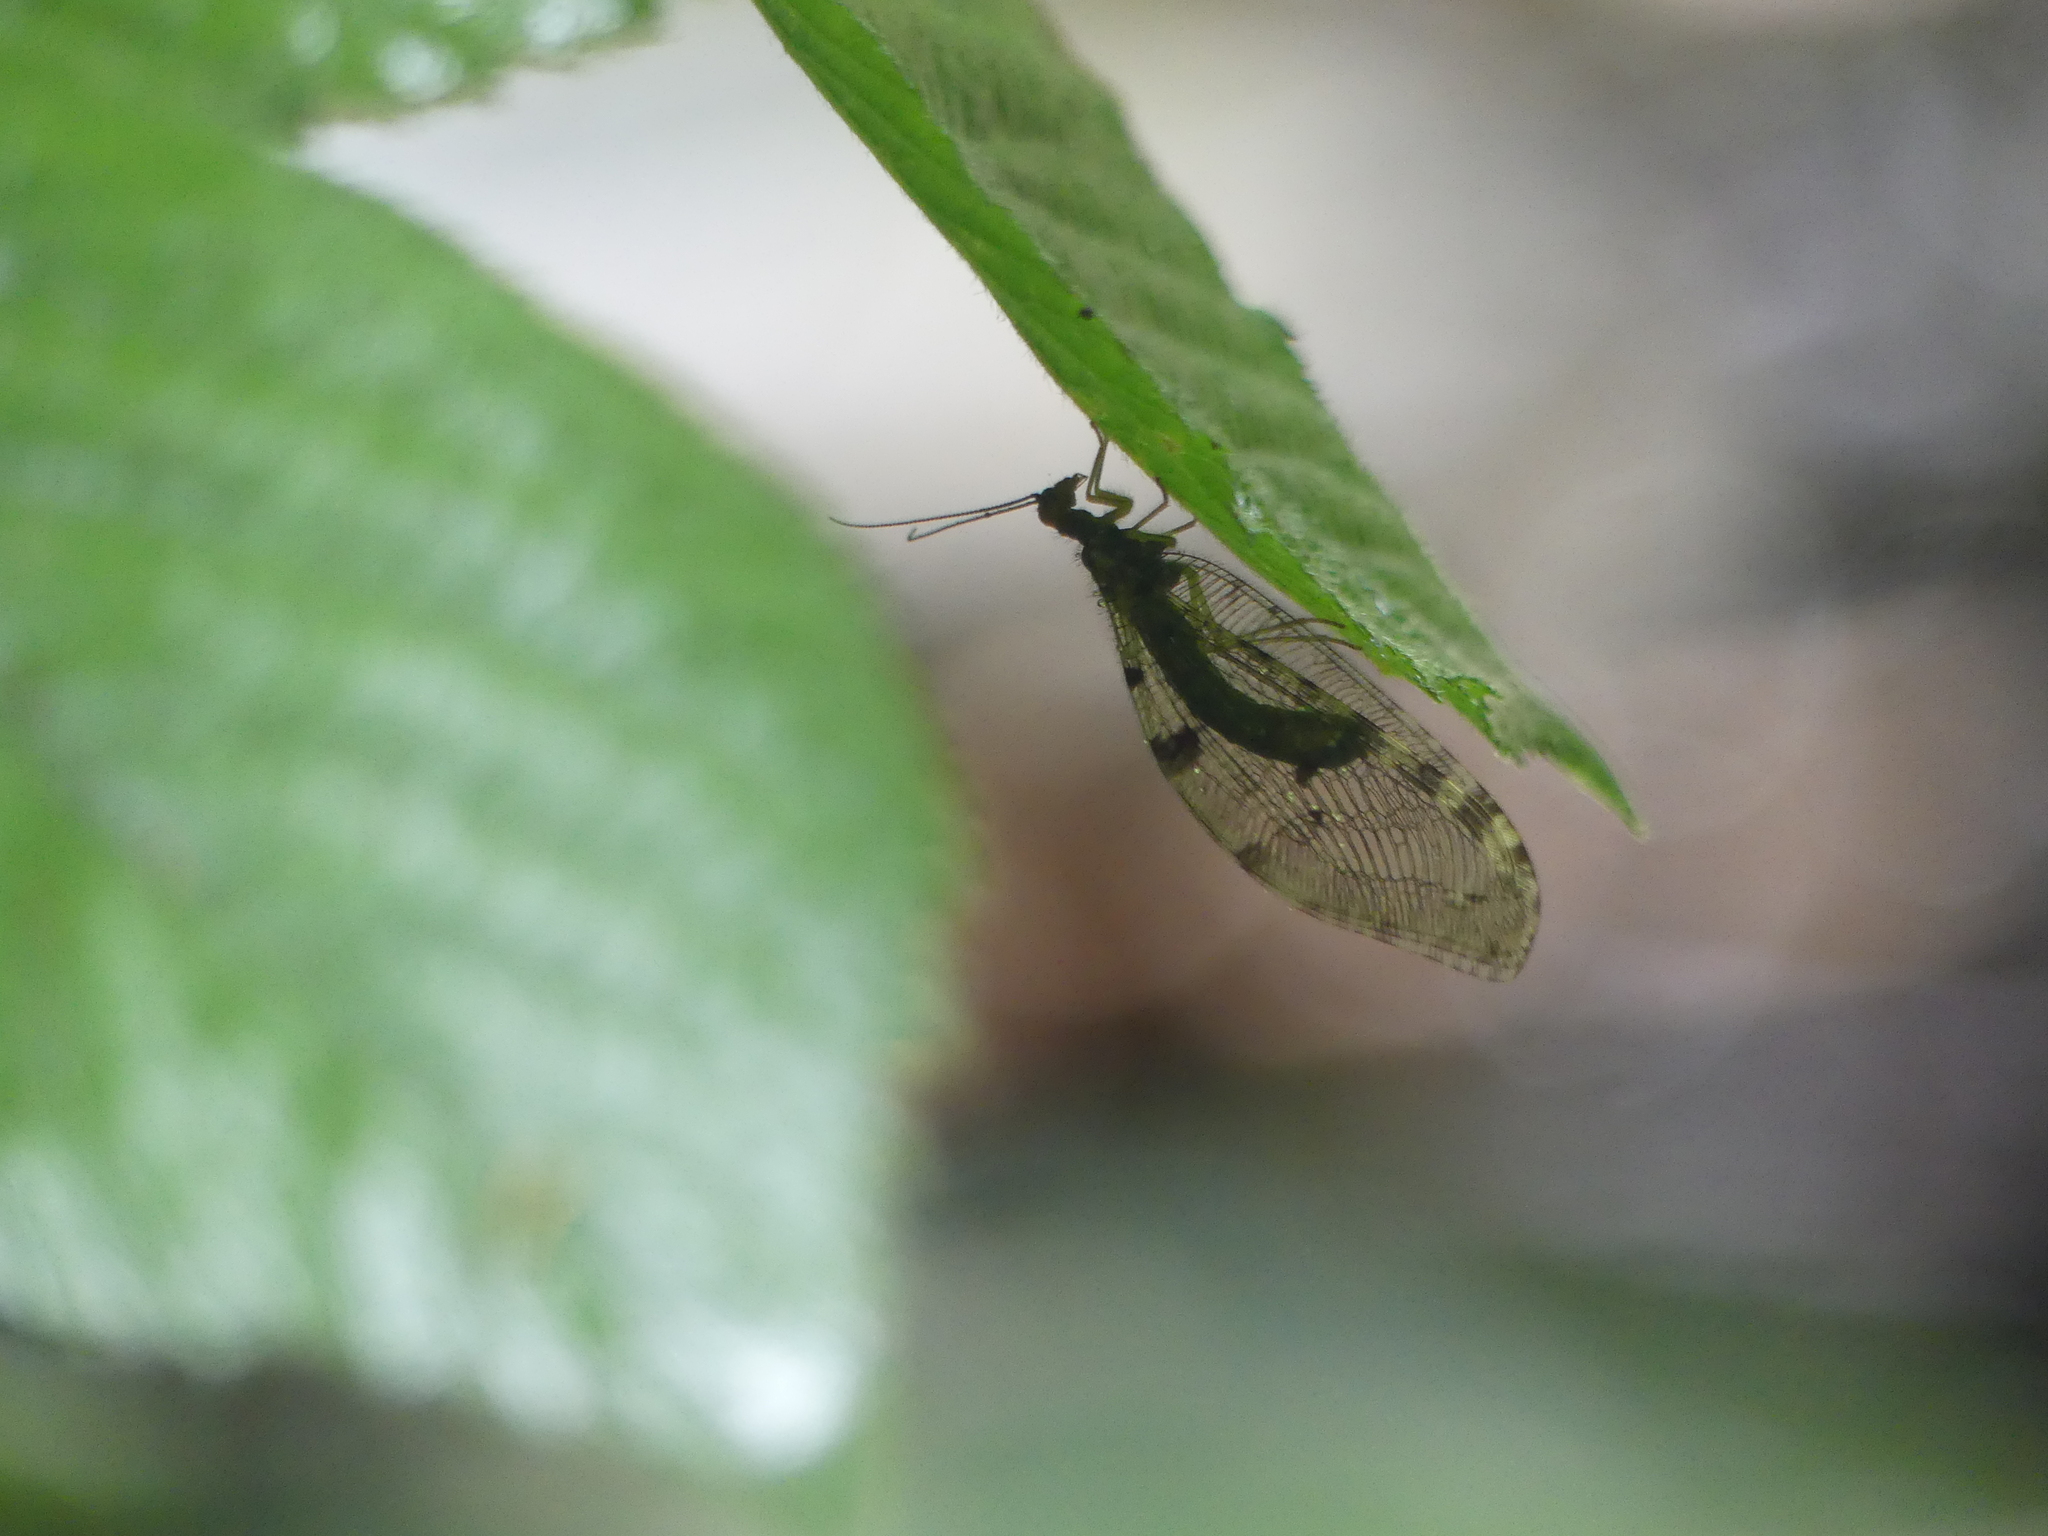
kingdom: Animalia
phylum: Arthropoda
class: Insecta
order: Neuroptera
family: Osmylidae
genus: Osmylus
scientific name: Osmylus fulvicephalus
